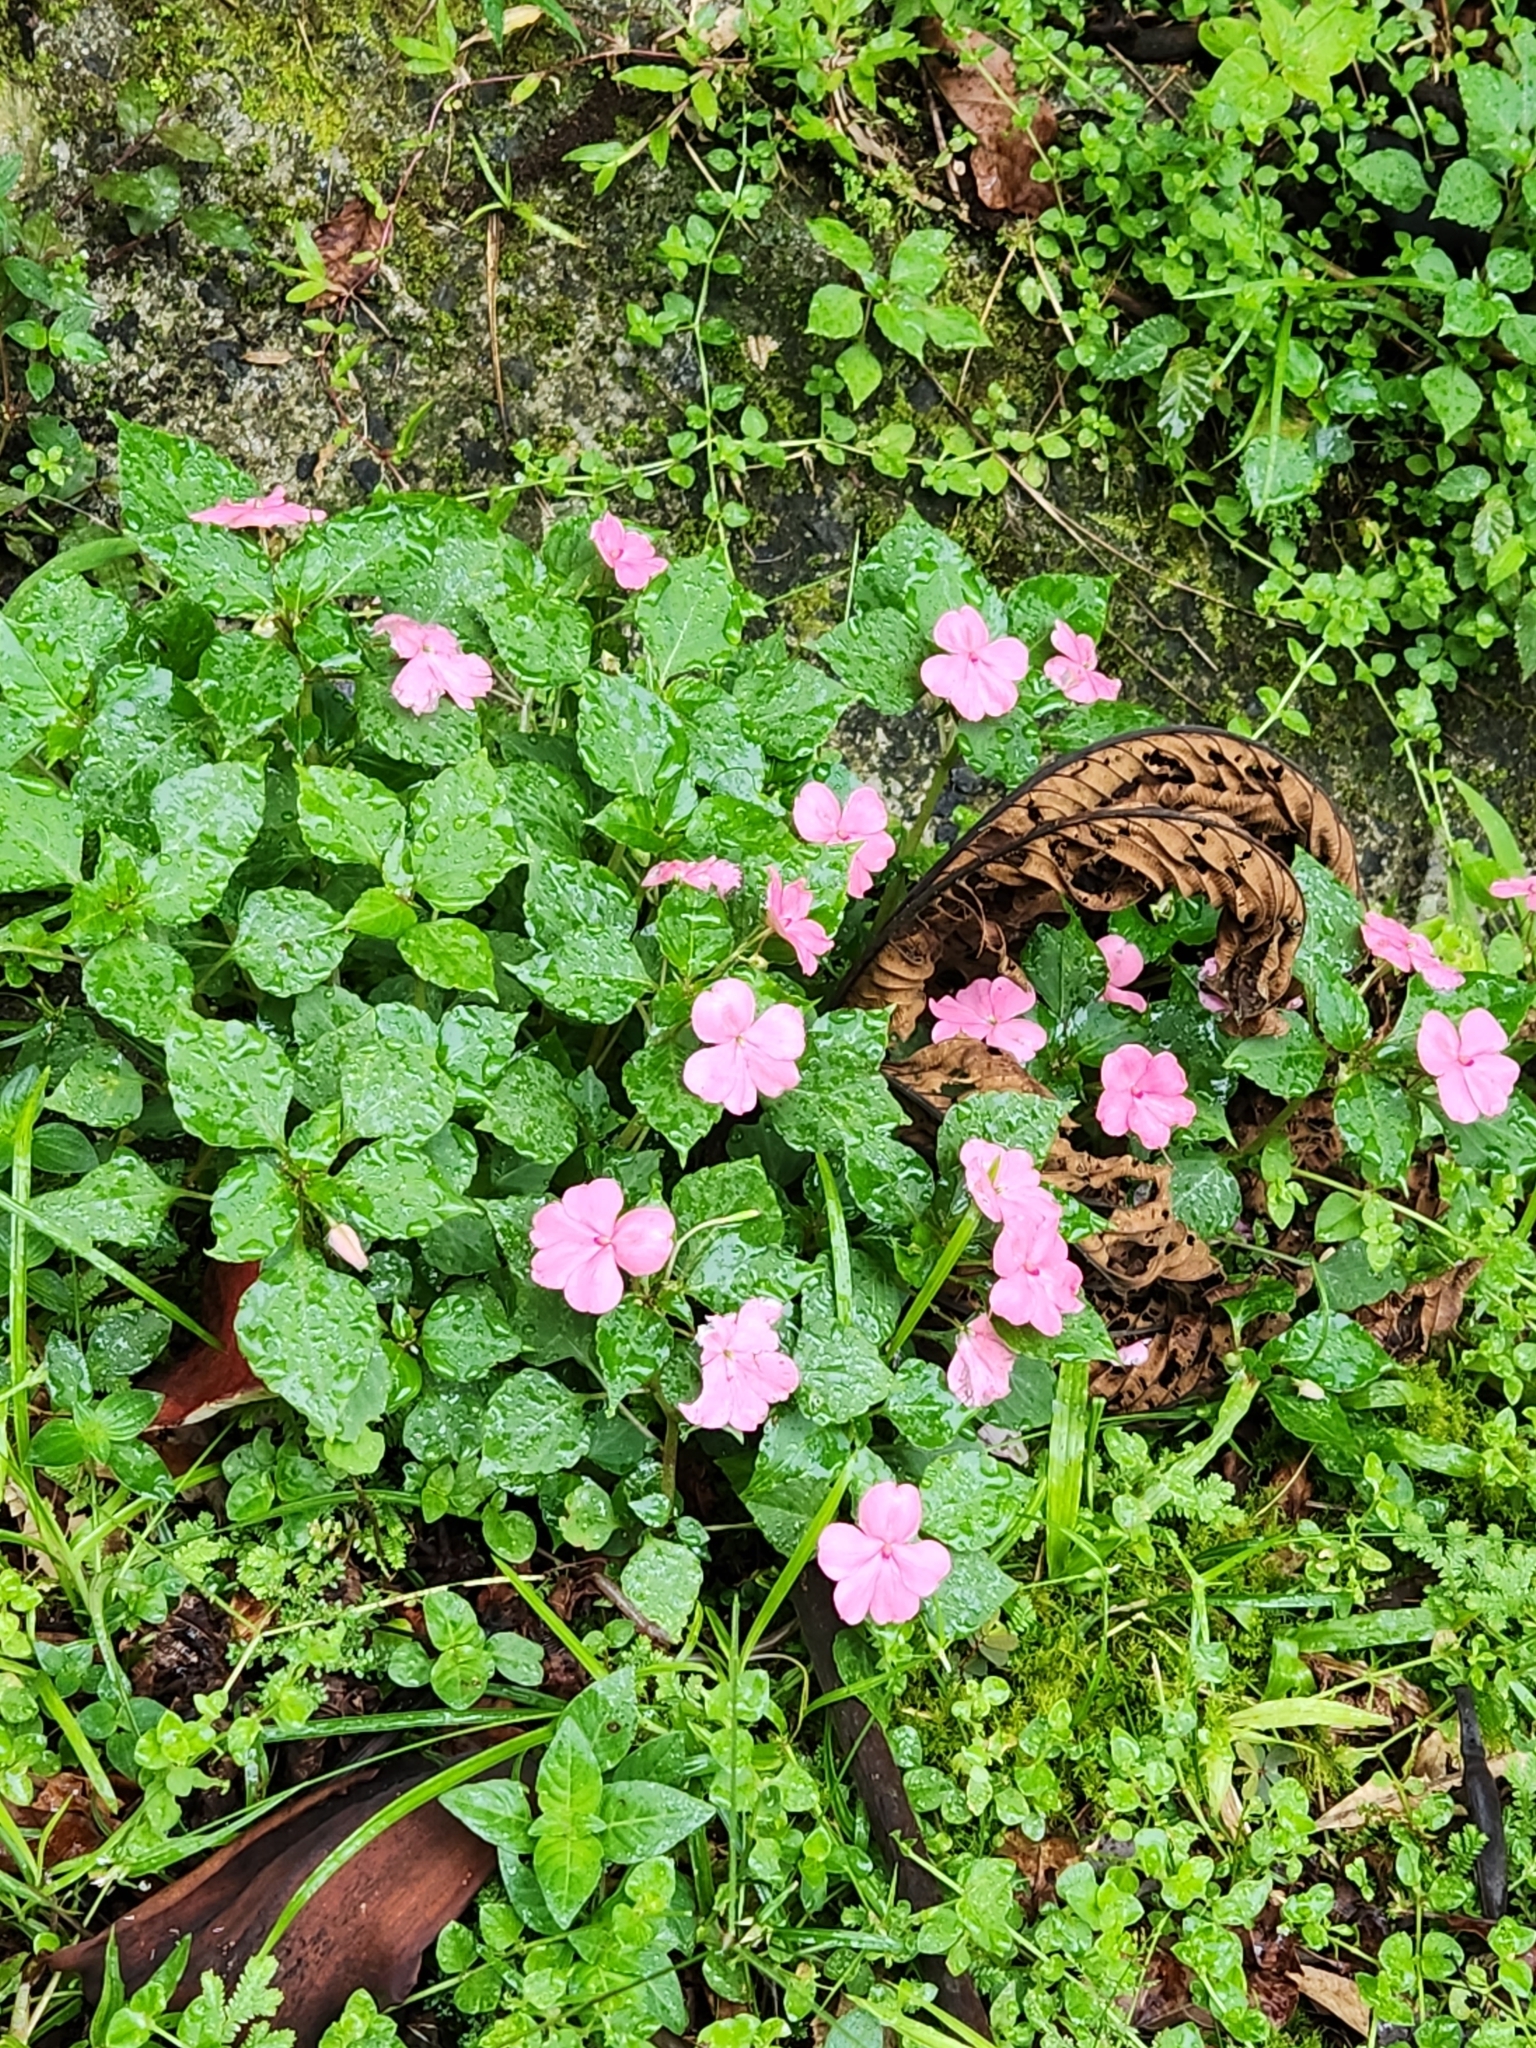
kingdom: Plantae
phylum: Tracheophyta
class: Magnoliopsida
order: Ericales
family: Balsaminaceae
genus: Impatiens
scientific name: Impatiens walleriana
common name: Buzzy lizzy
